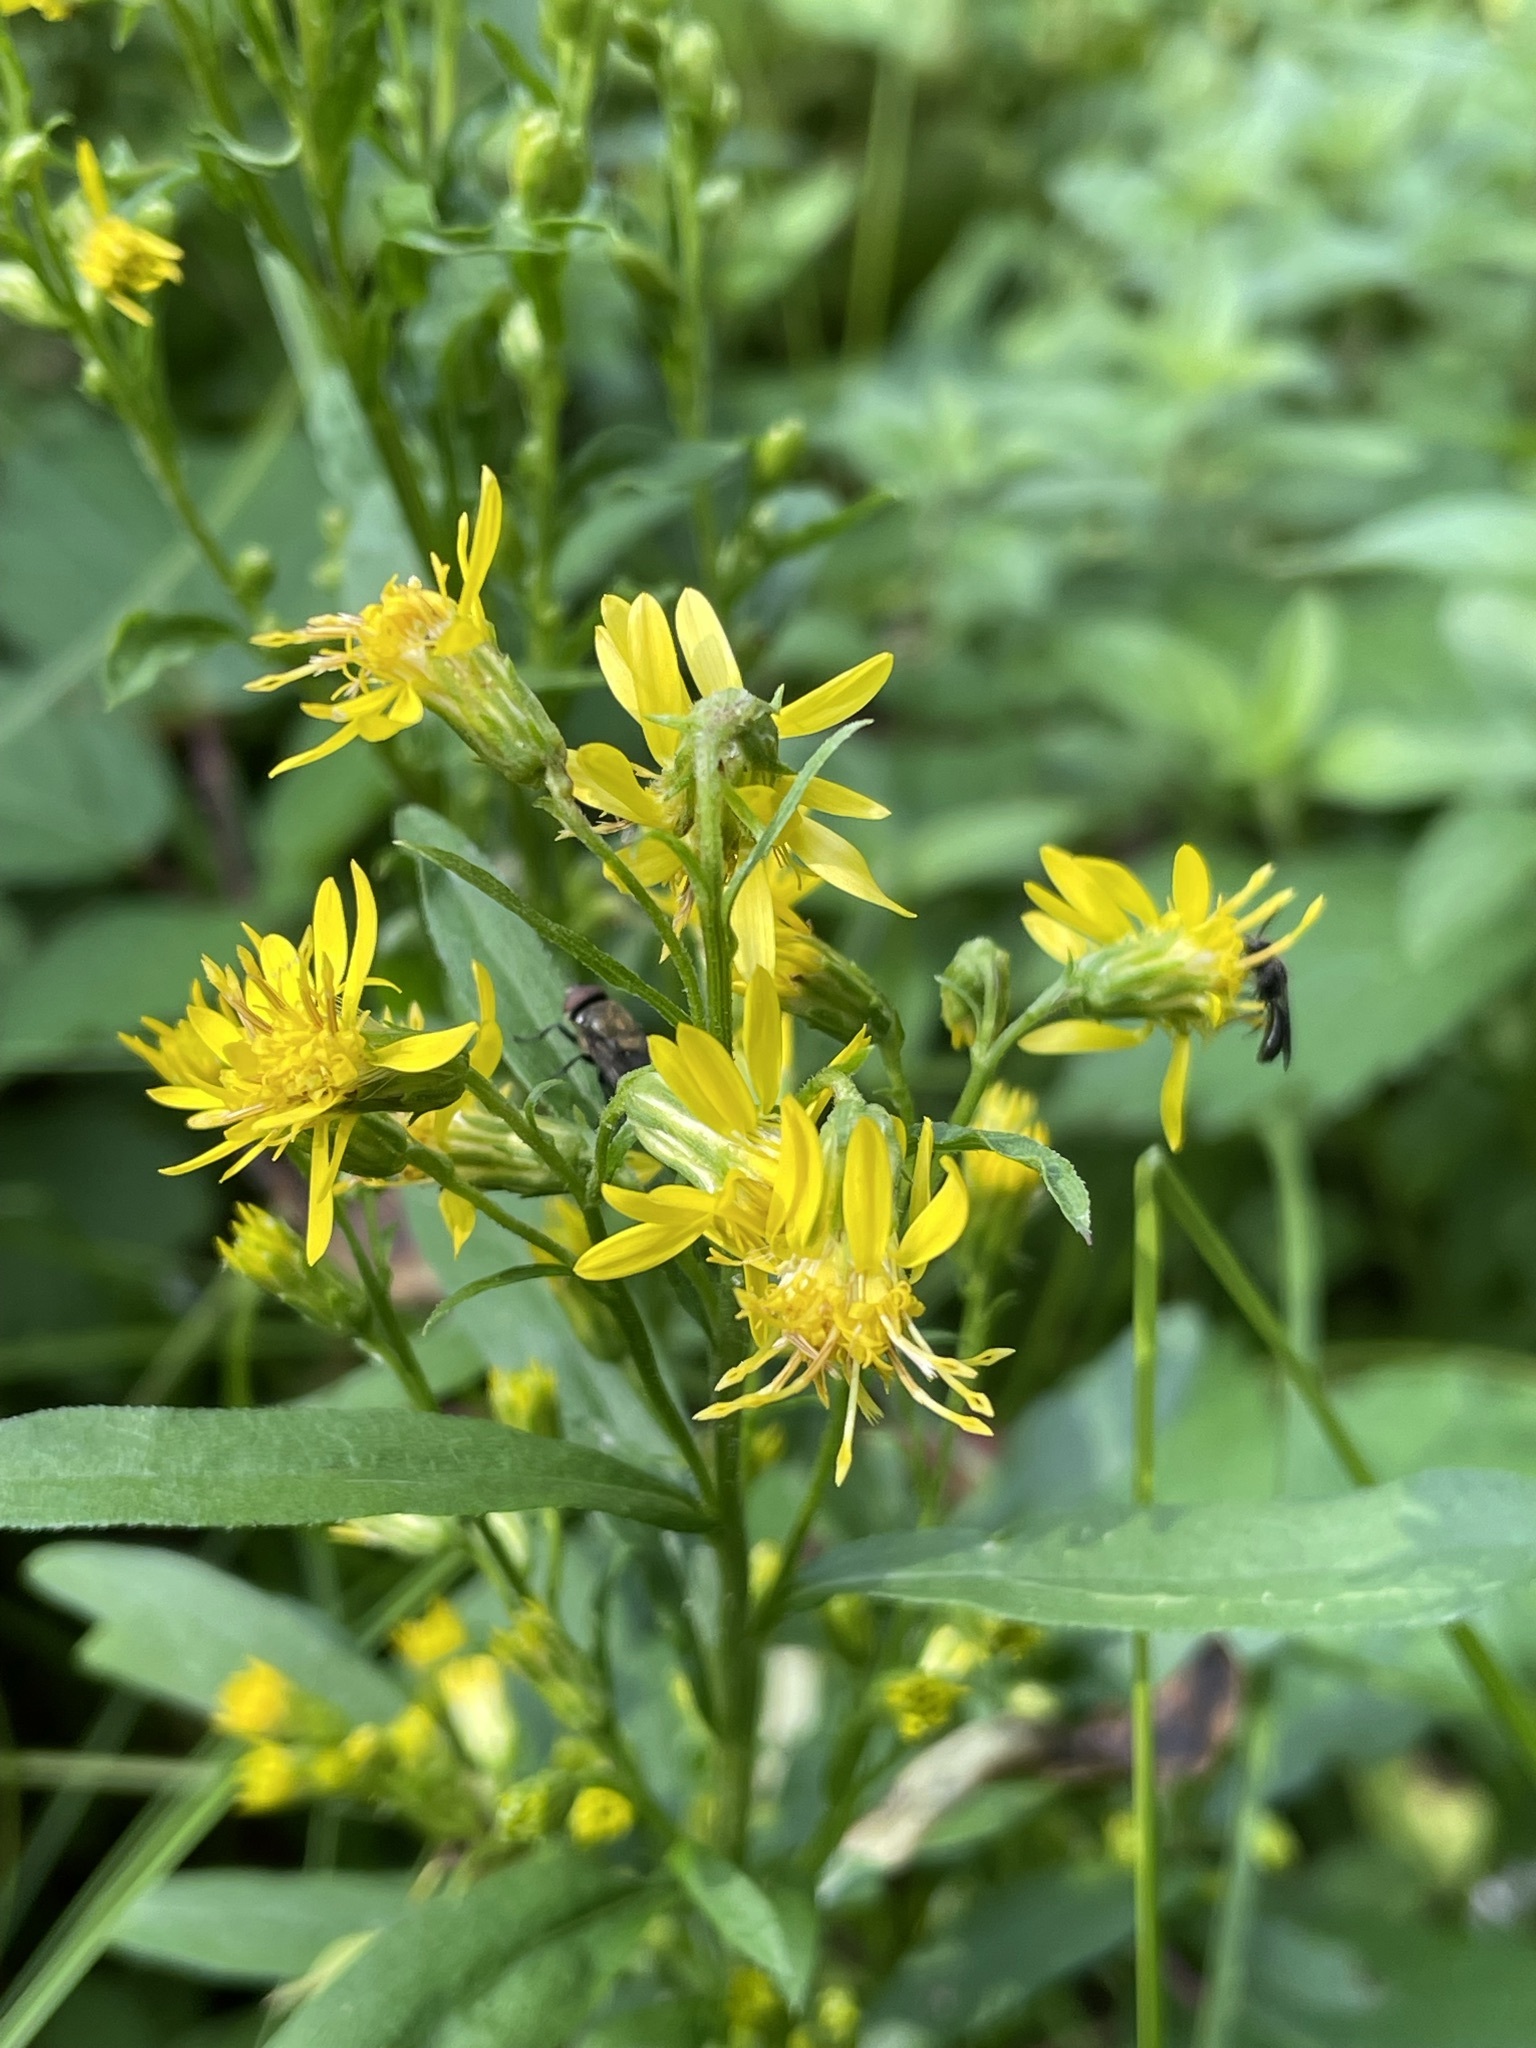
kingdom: Plantae
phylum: Tracheophyta
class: Magnoliopsida
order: Asterales
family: Asteraceae
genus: Solidago
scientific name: Solidago virgaurea
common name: Goldenrod
